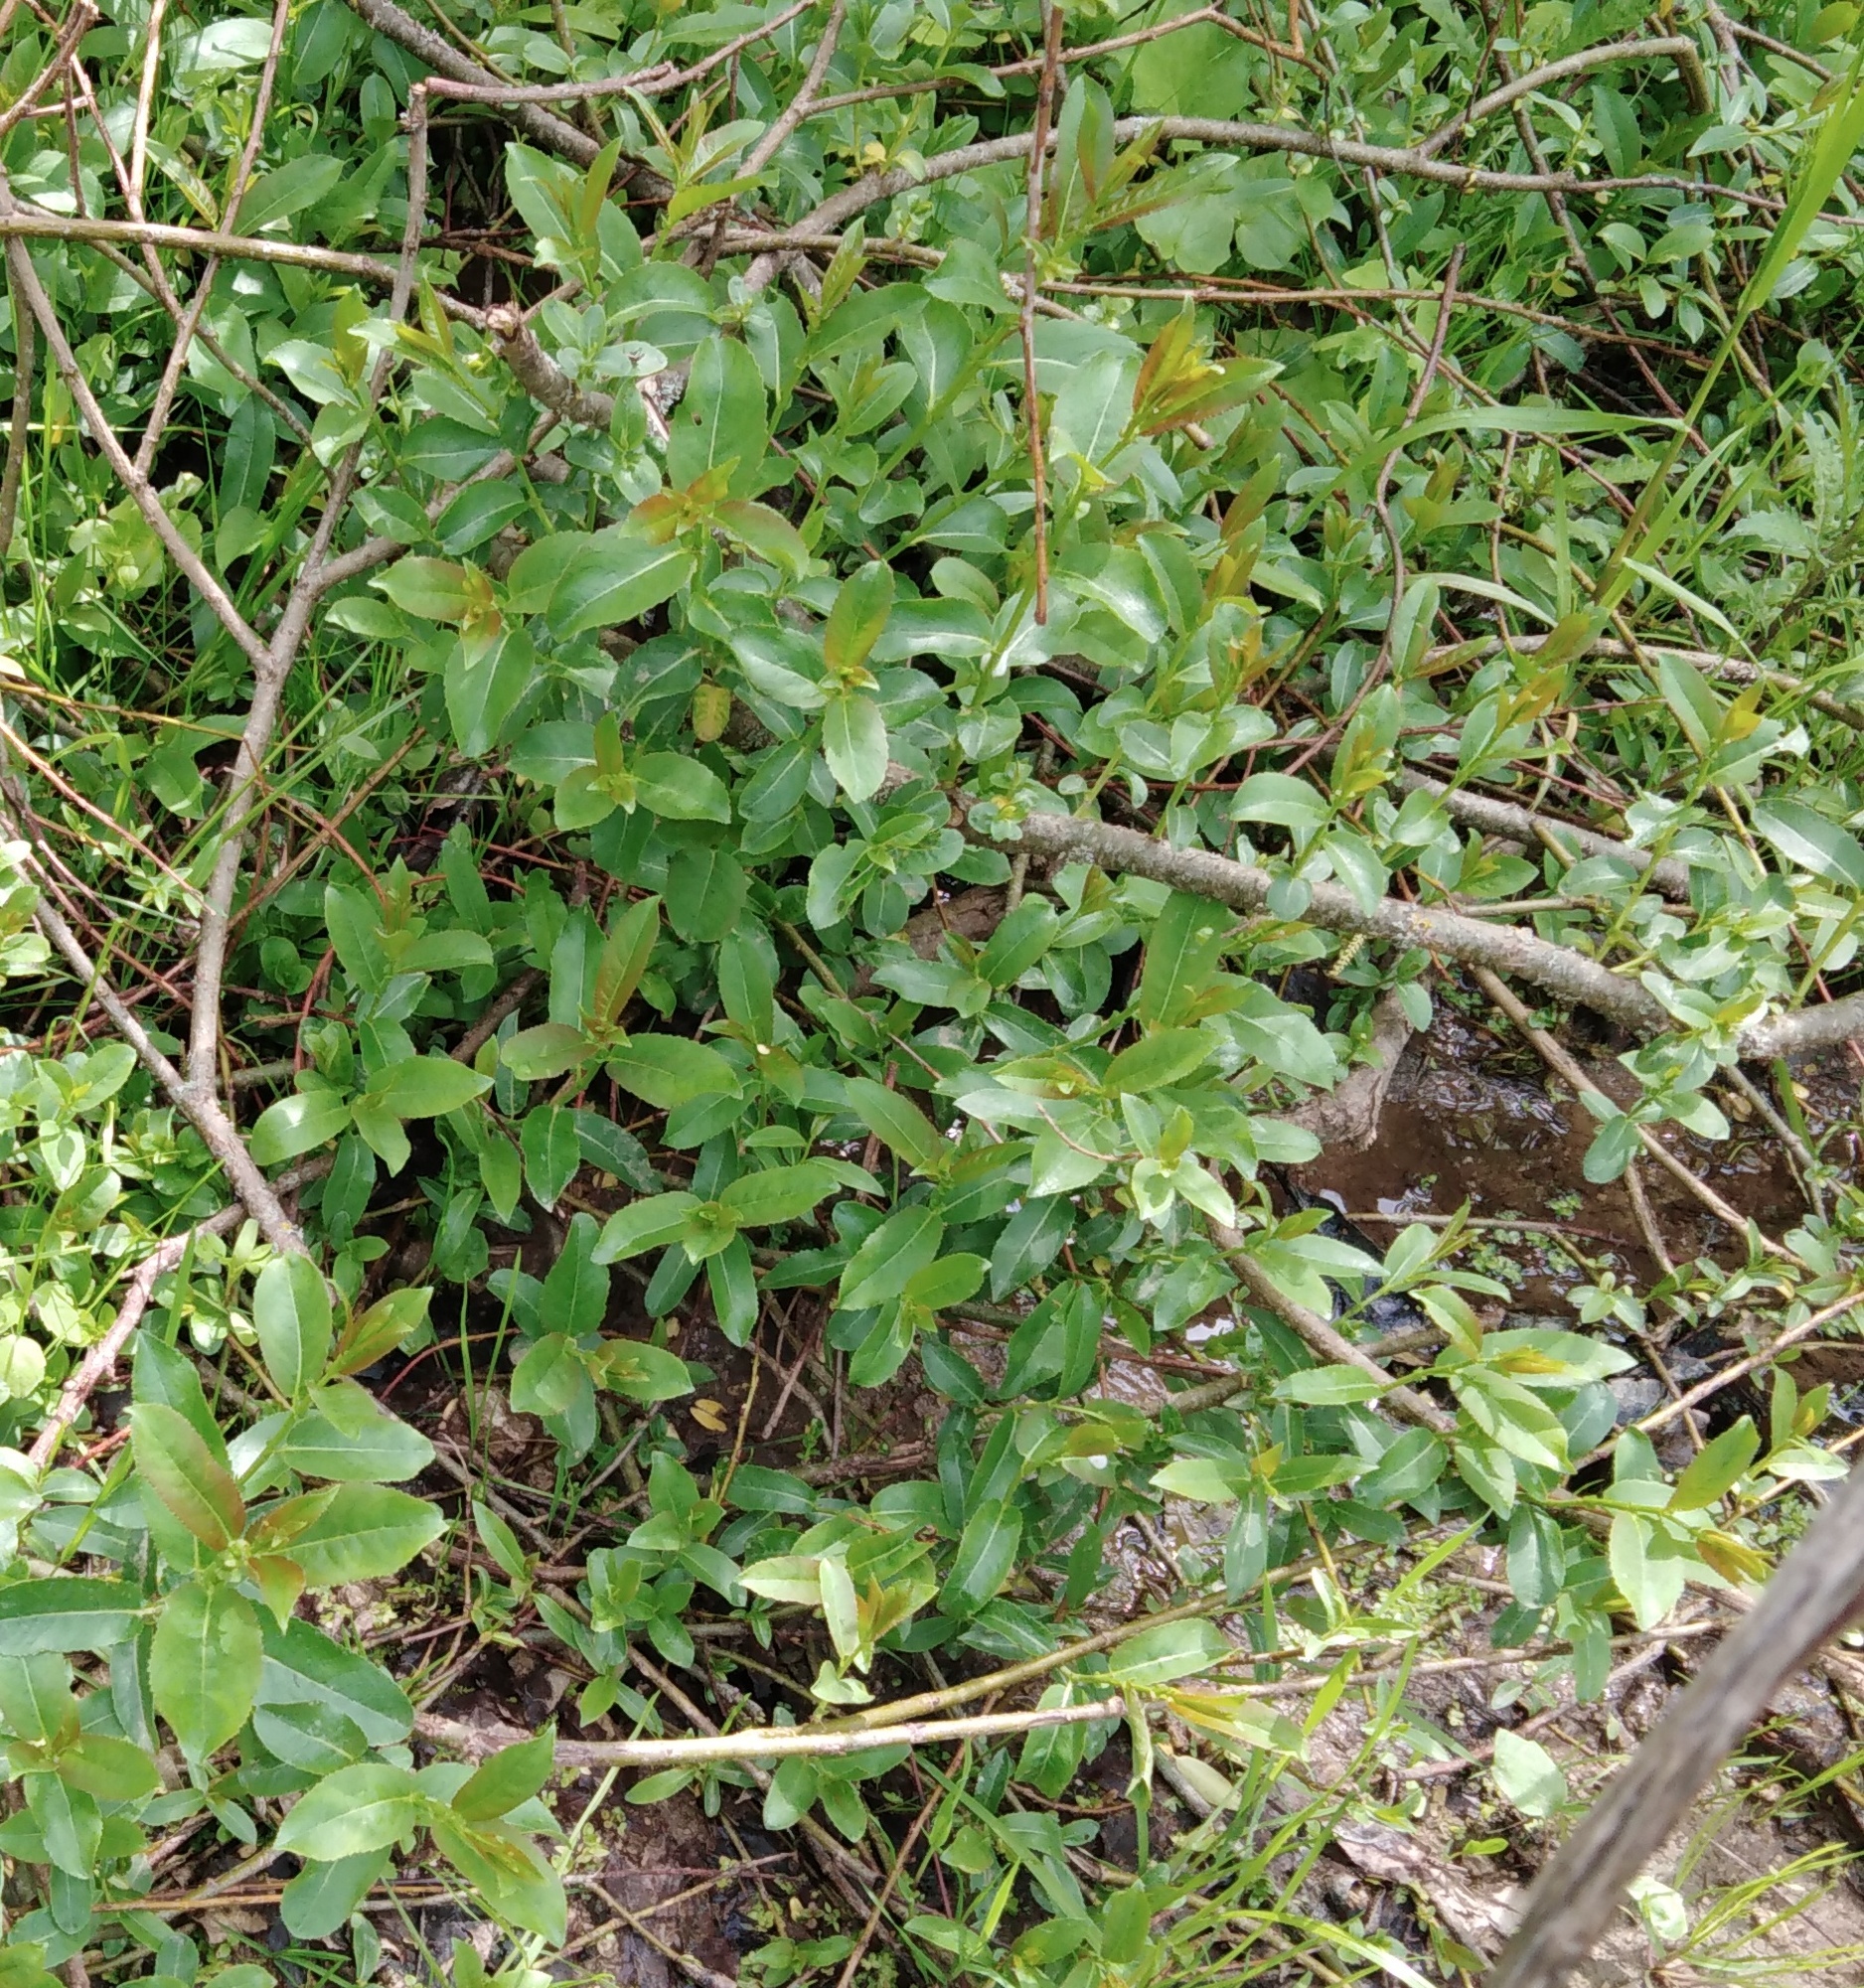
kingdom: Plantae
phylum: Tracheophyta
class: Magnoliopsida
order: Malpighiales
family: Salicaceae
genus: Salix
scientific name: Salix triandra
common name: Almond willow
